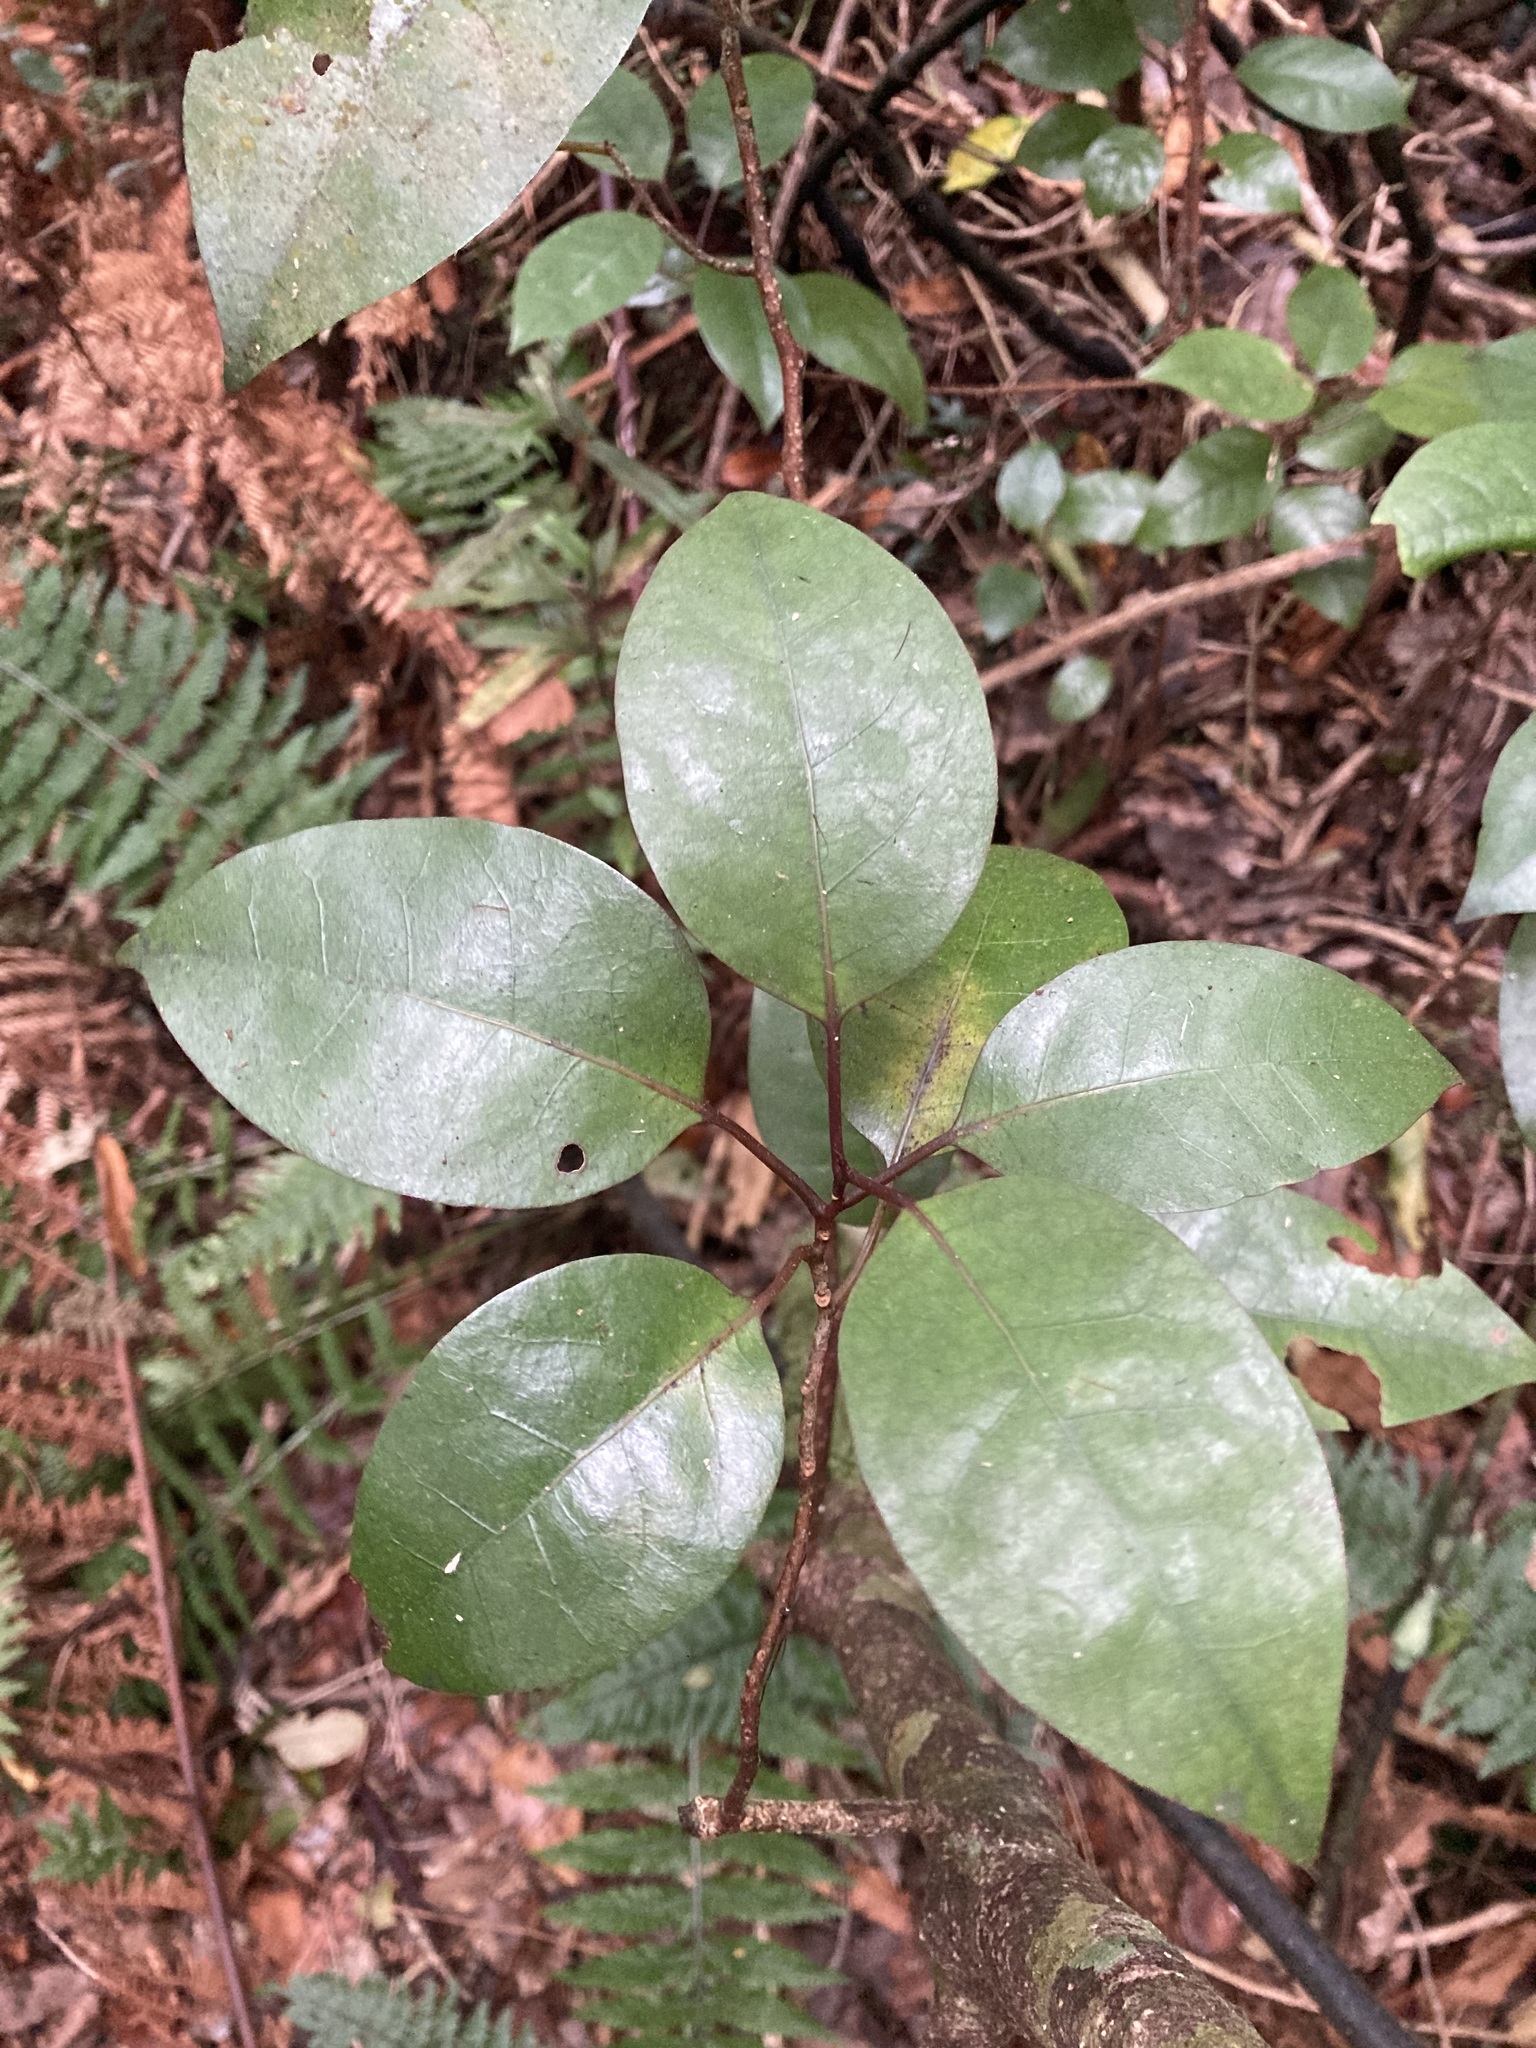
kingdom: Plantae
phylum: Tracheophyta
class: Magnoliopsida
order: Laurales
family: Lauraceae
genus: Litsea
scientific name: Litsea calicaris
